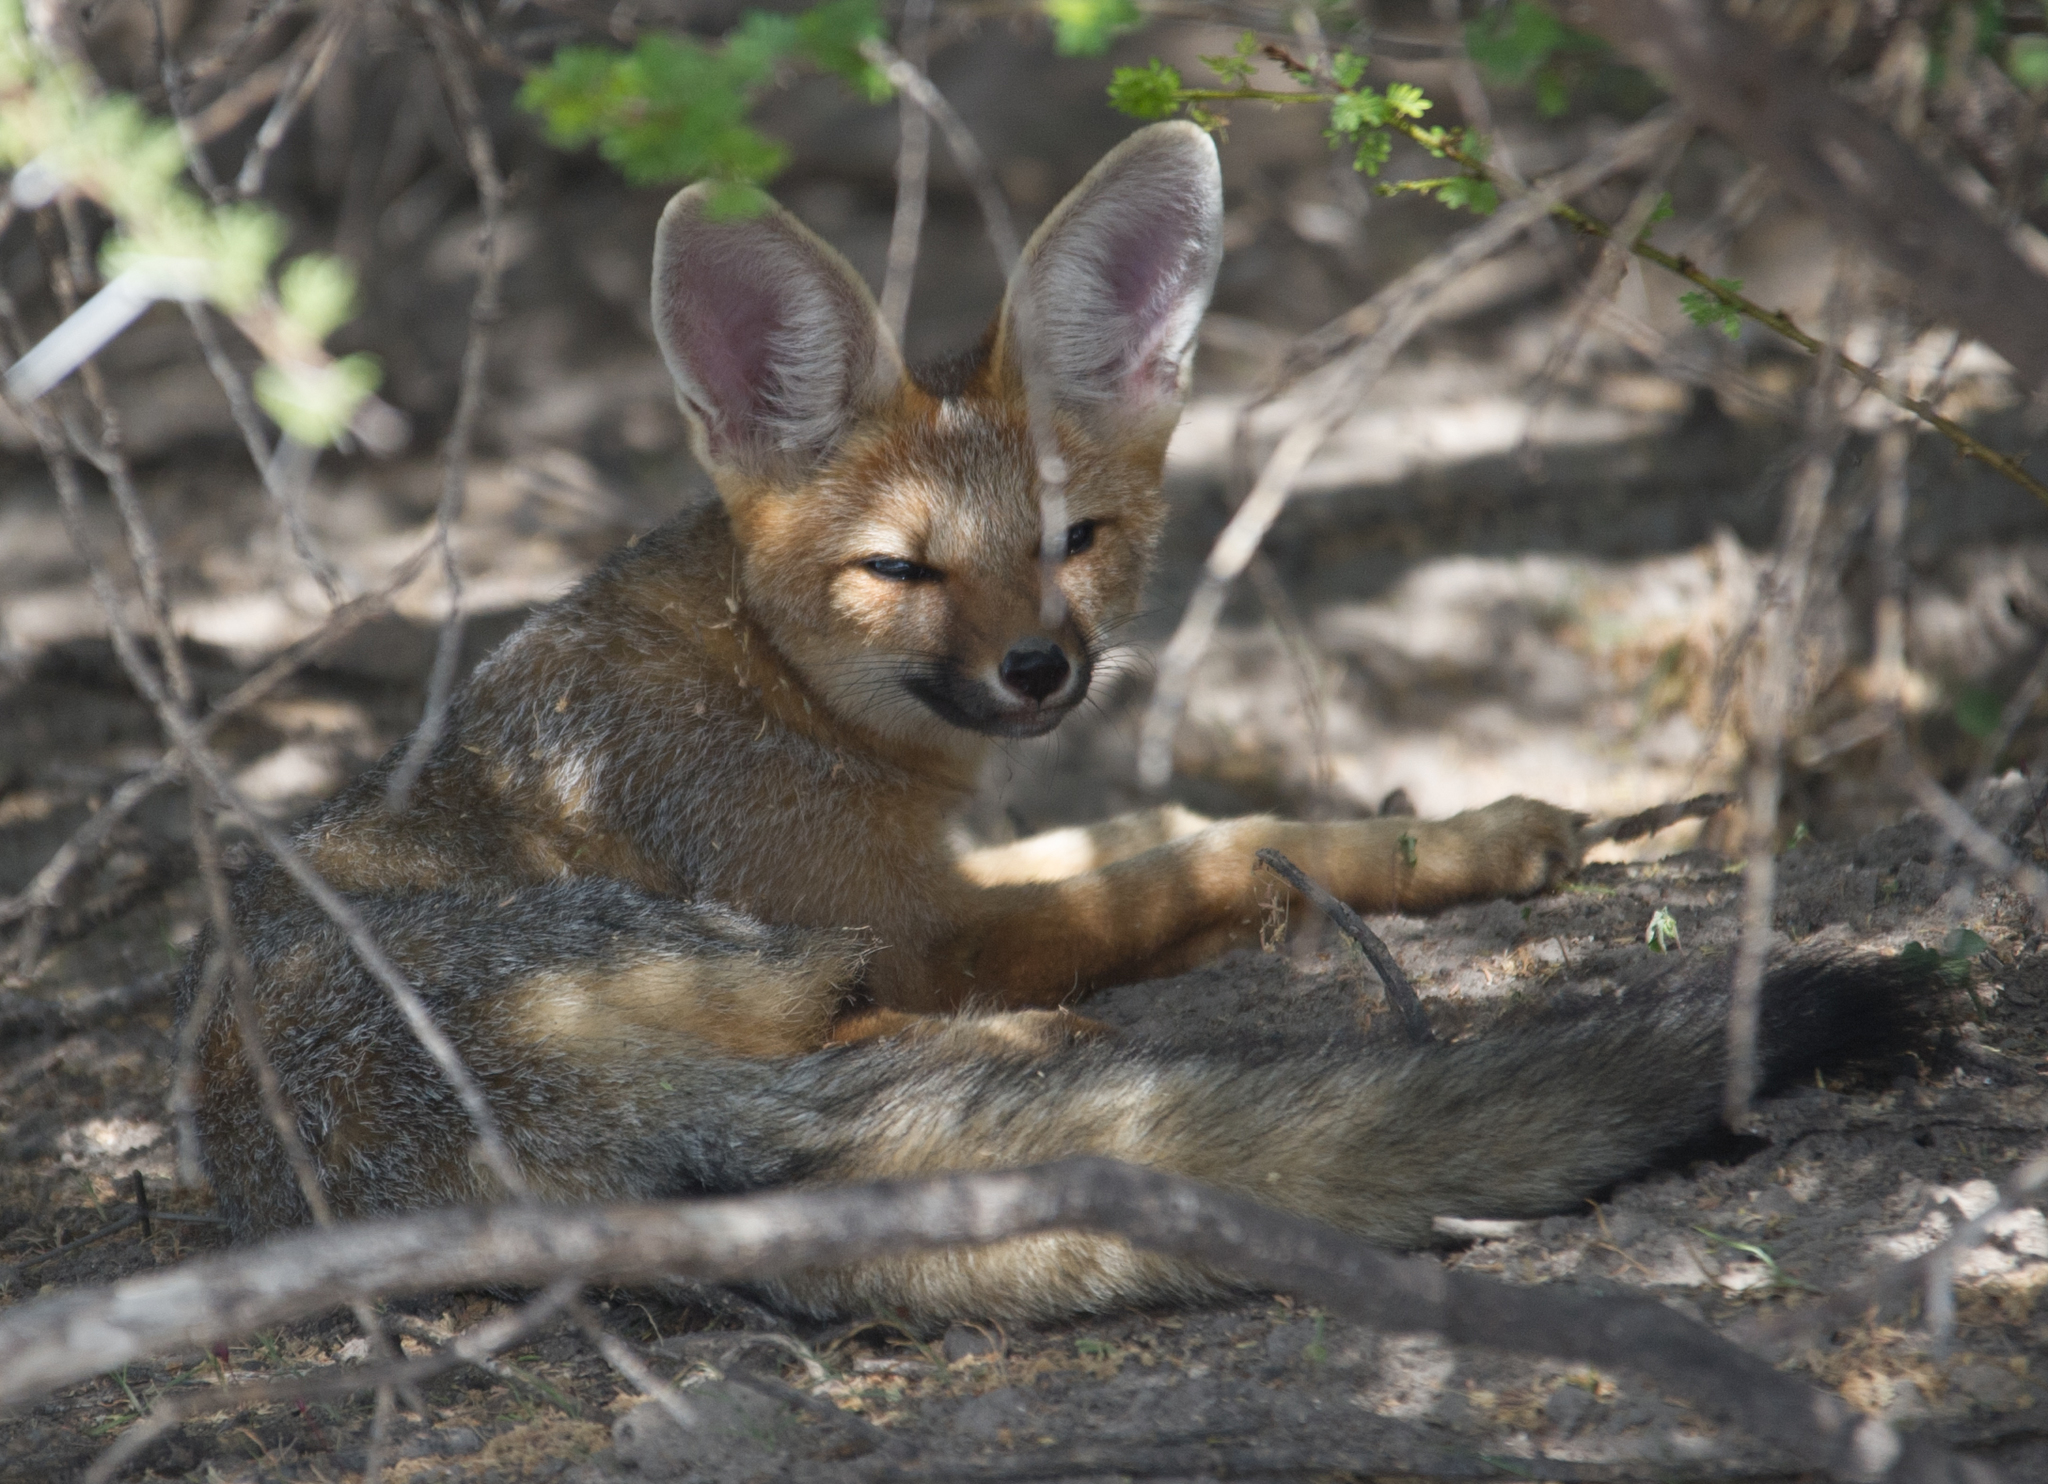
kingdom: Animalia
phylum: Chordata
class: Mammalia
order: Carnivora
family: Canidae
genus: Vulpes
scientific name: Vulpes chama
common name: Cape fox
